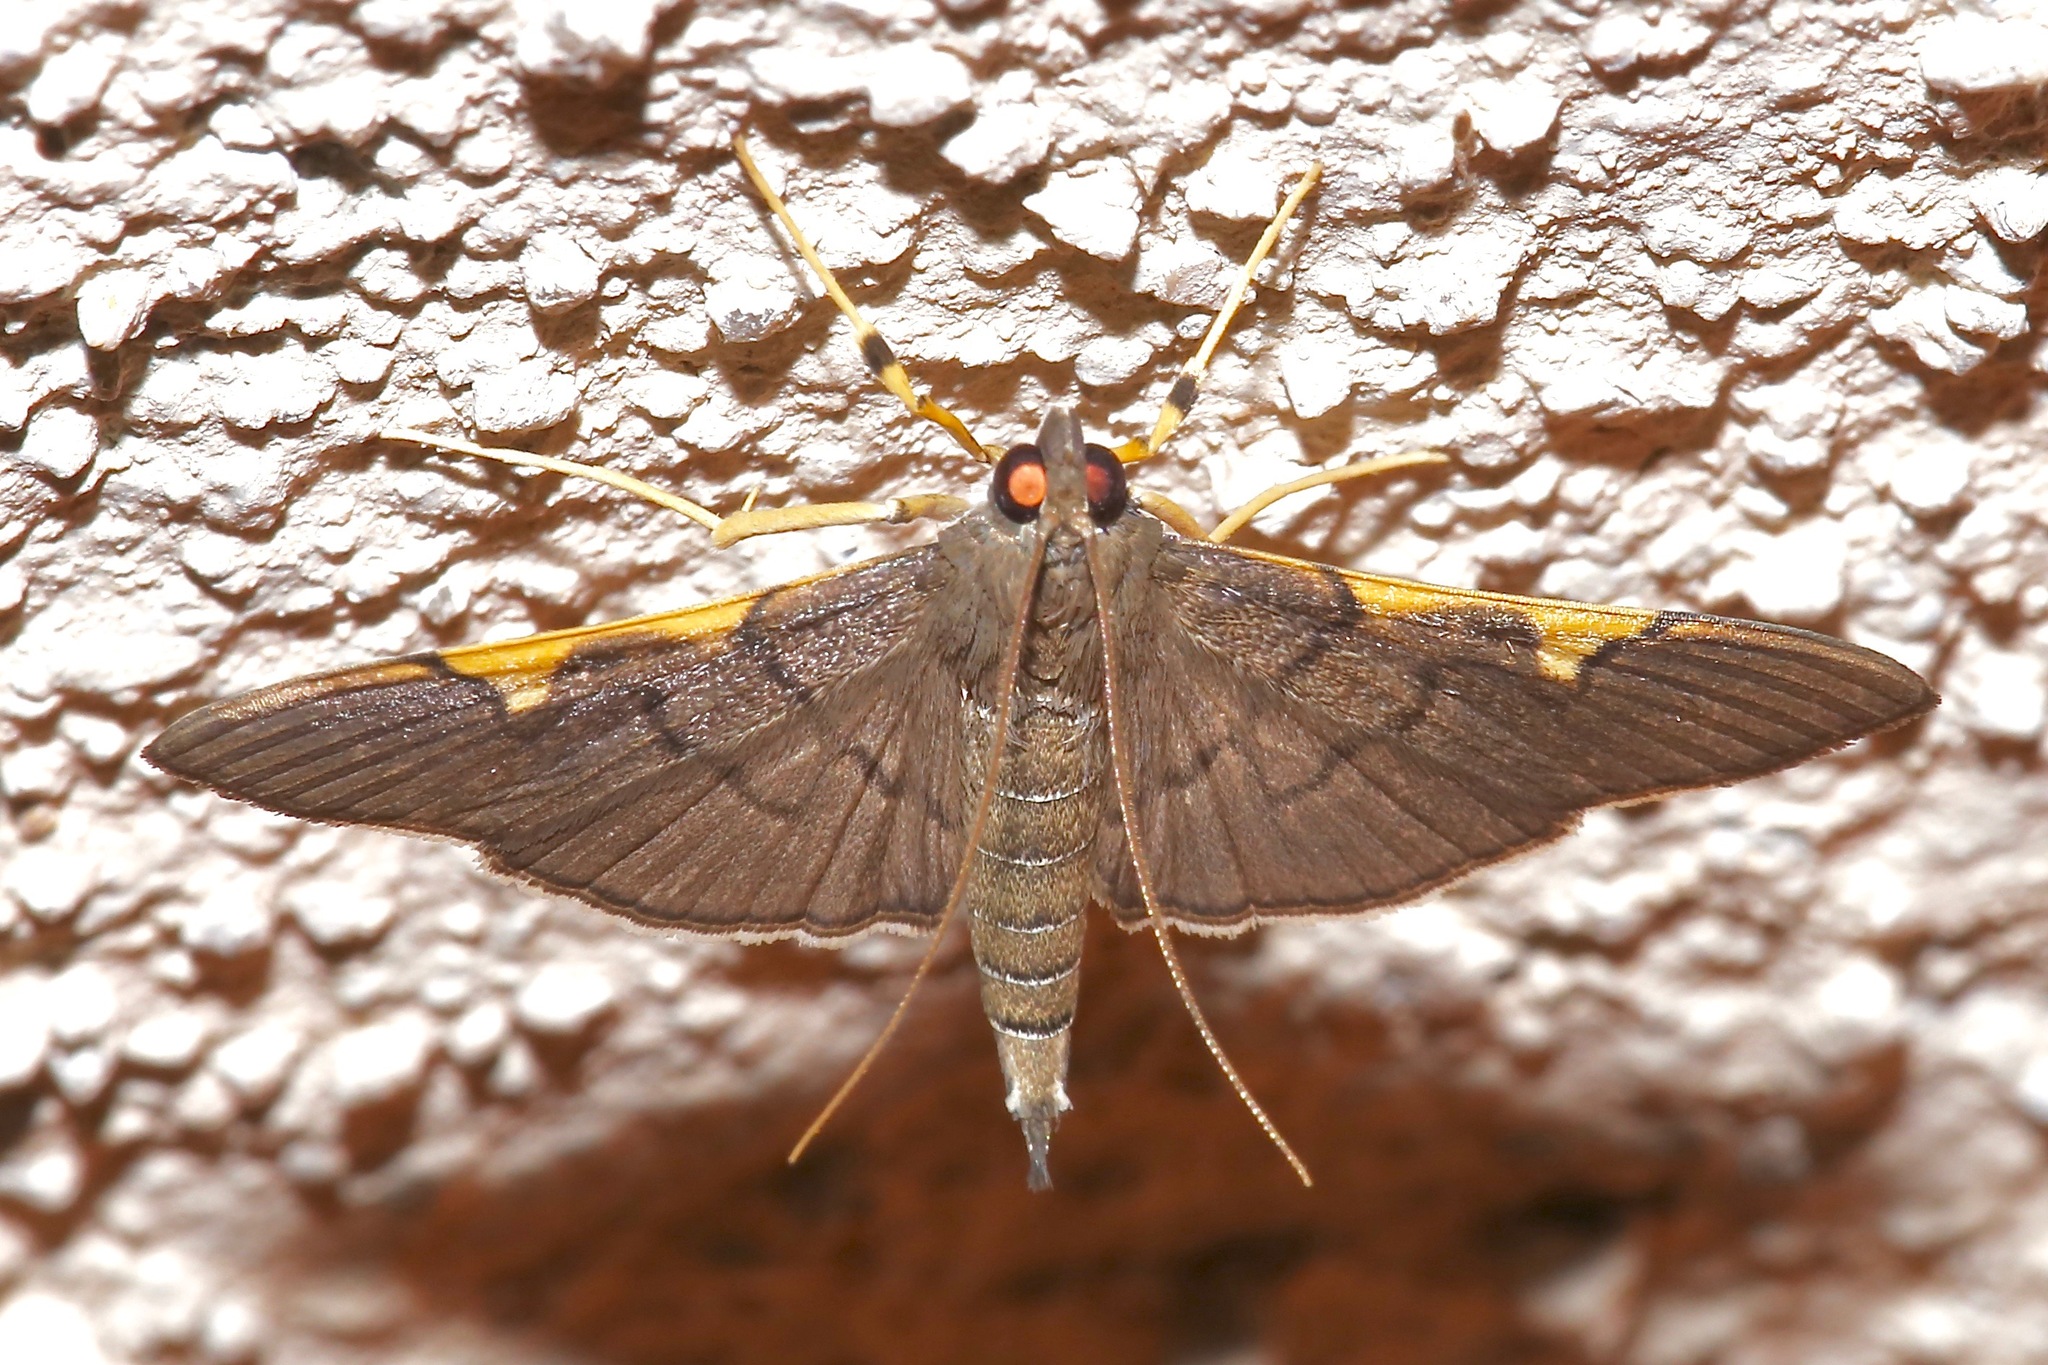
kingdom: Animalia
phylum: Arthropoda
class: Insecta
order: Lepidoptera
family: Crambidae
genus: Omiodes
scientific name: Omiodes simialis
